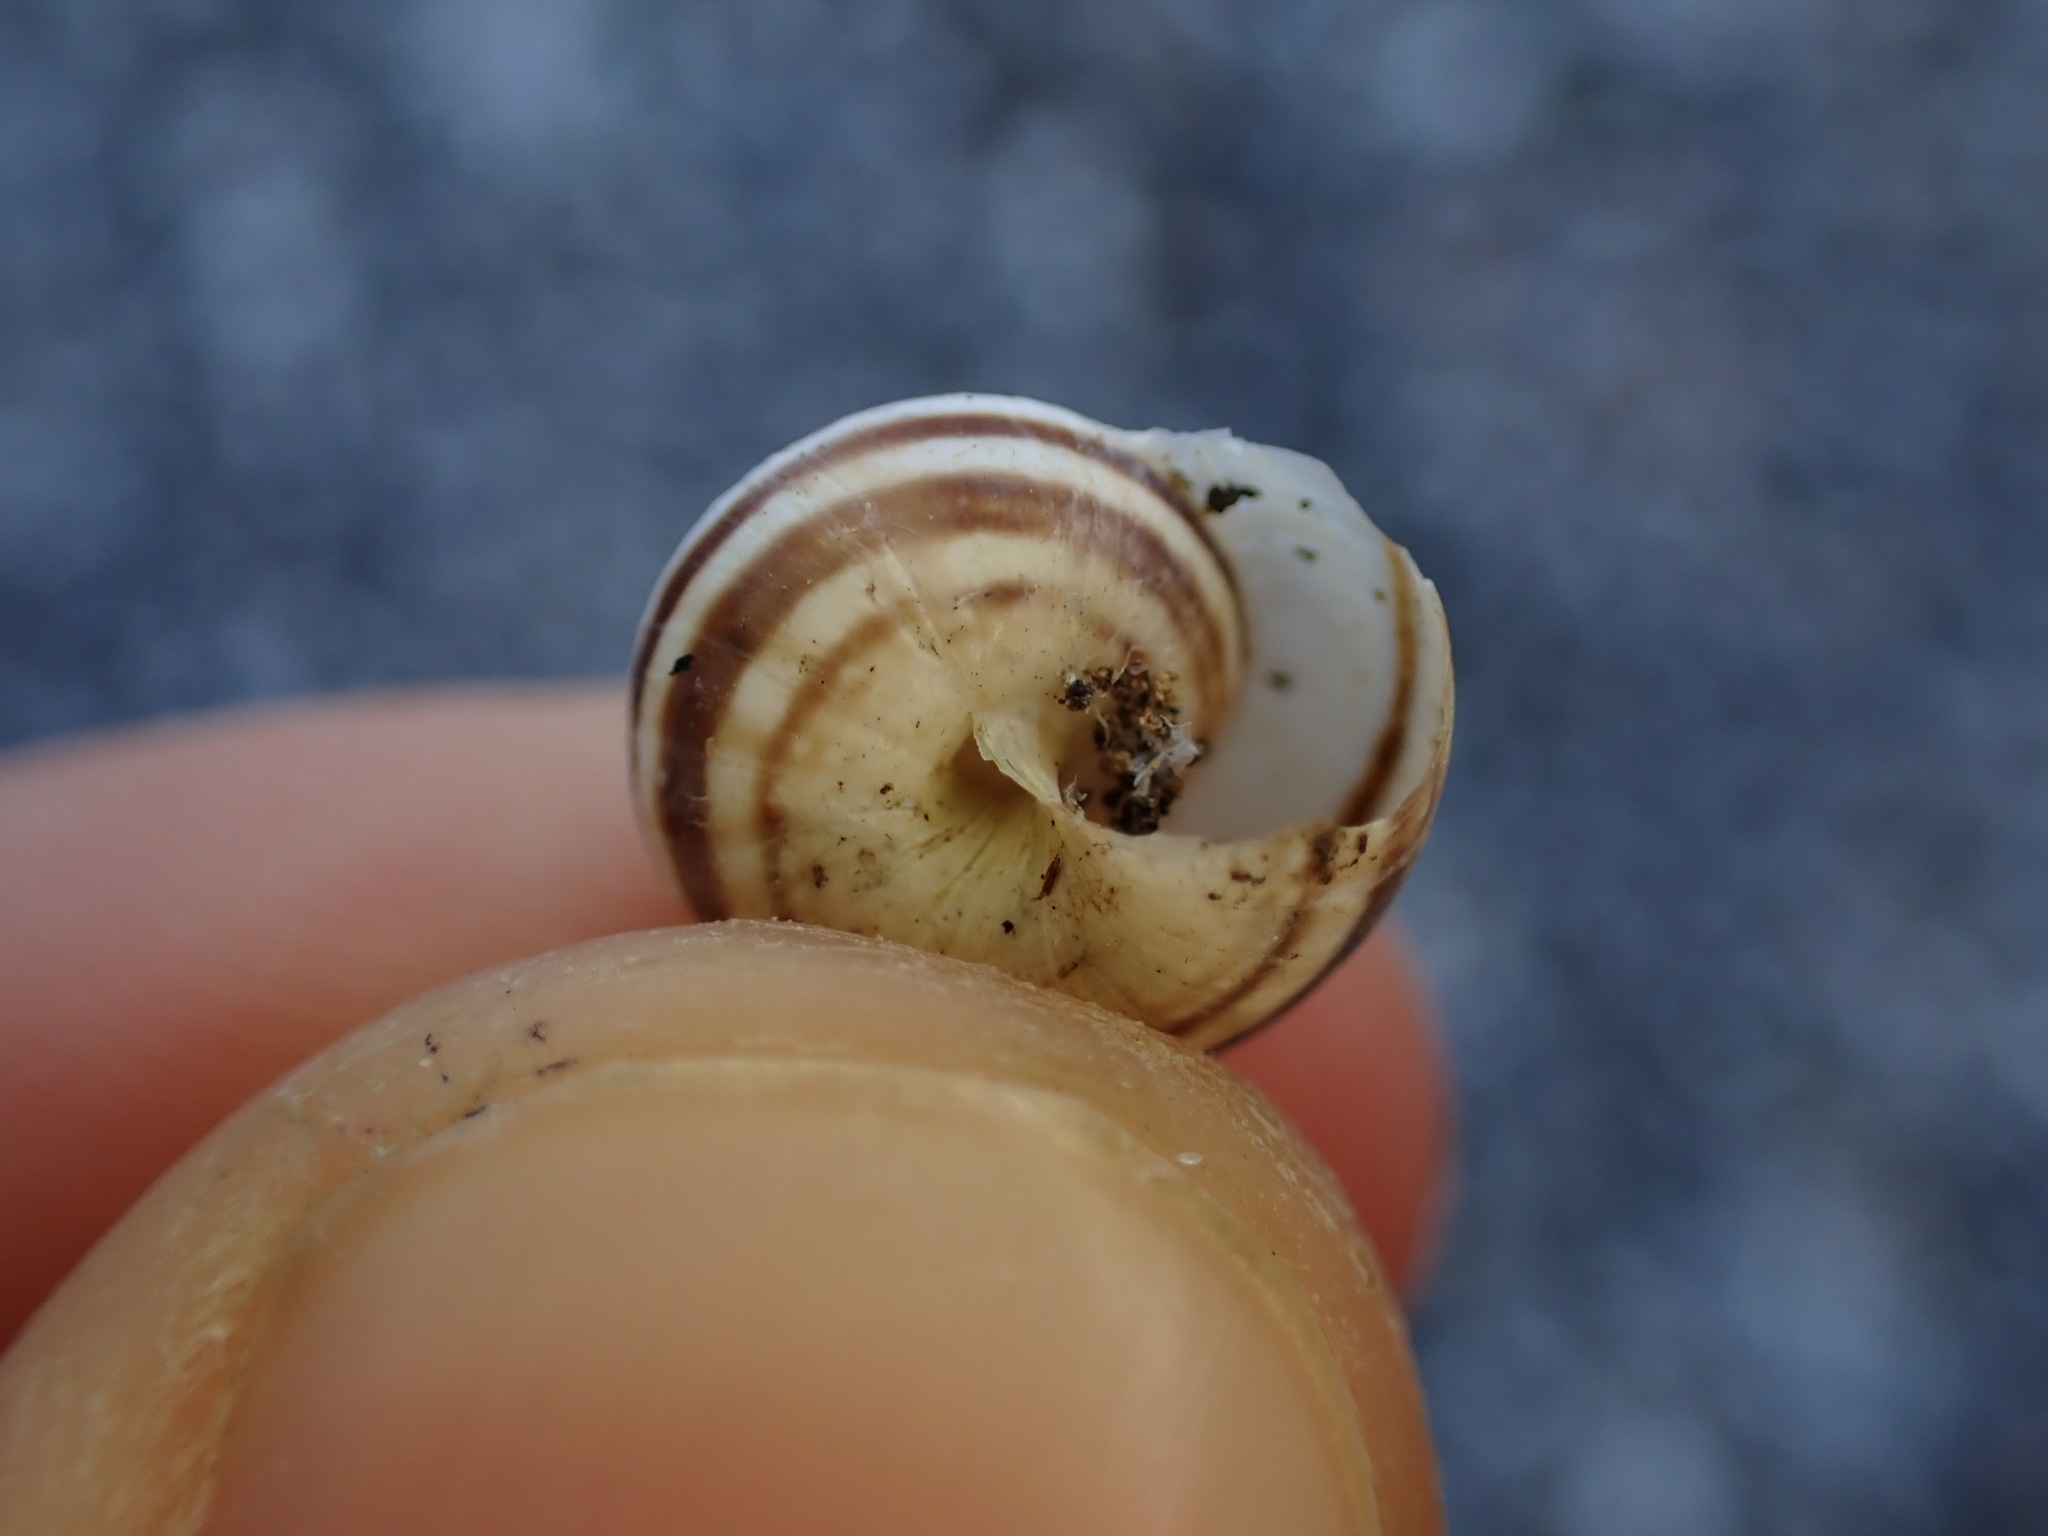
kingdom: Animalia
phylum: Mollusca
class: Gastropoda
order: Stylommatophora
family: Geomitridae
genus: Cernuella
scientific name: Cernuella virgata
